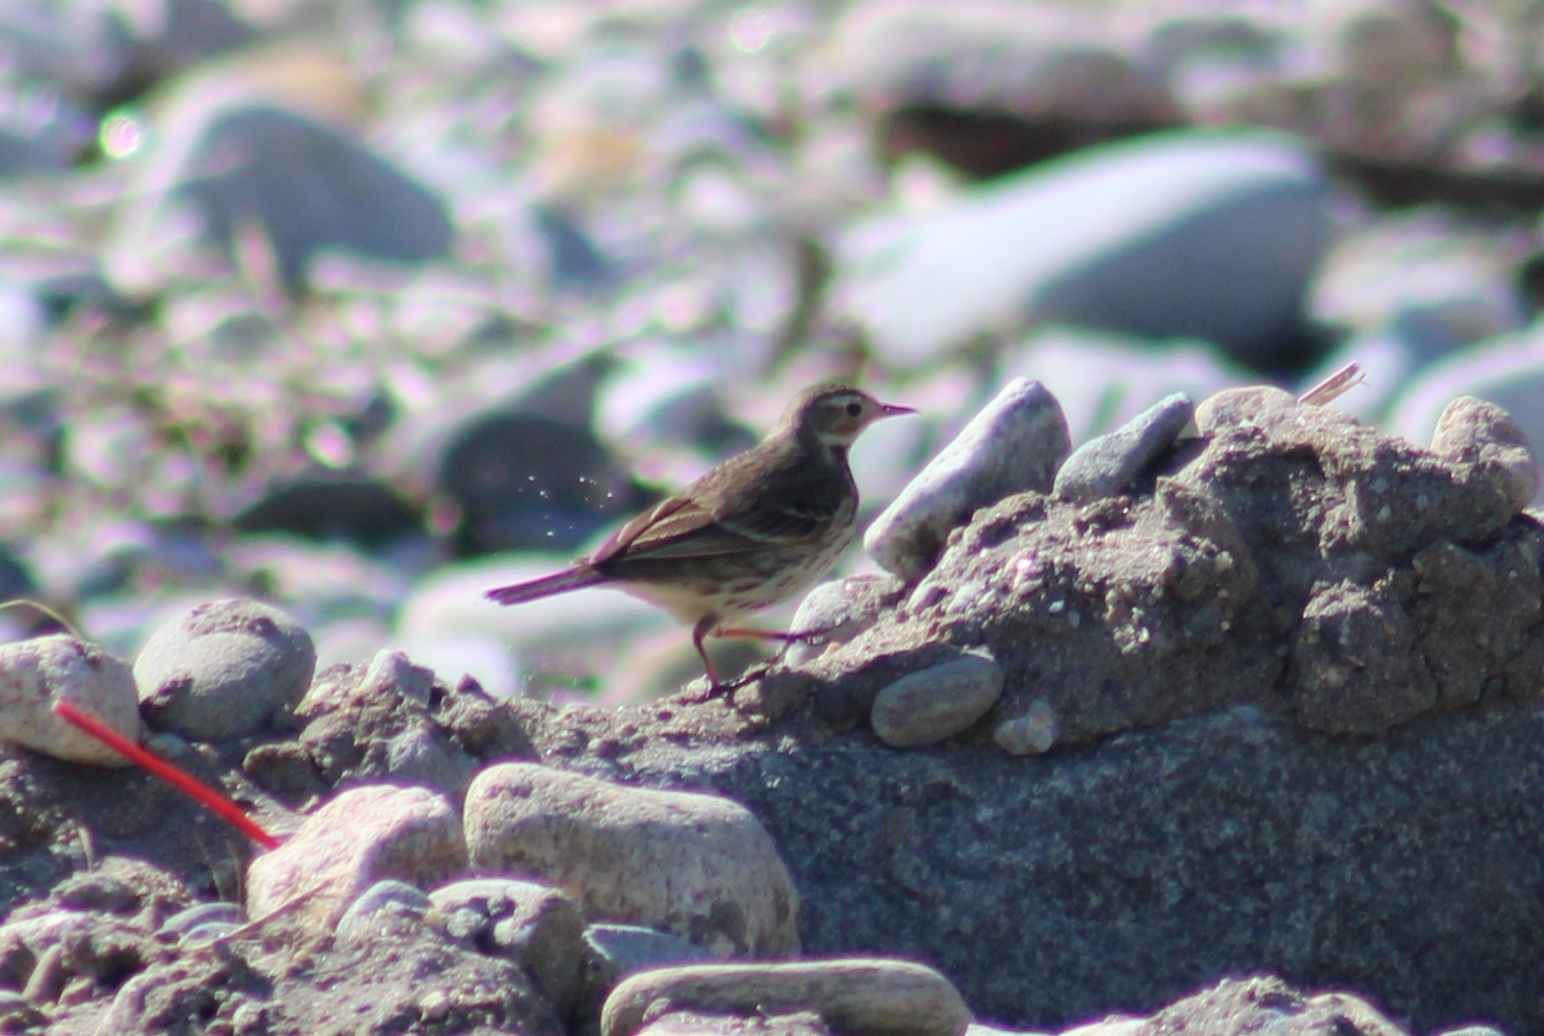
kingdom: Animalia
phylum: Chordata
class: Aves
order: Passeriformes
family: Motacillidae
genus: Anthus
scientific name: Anthus rubescens
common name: Buff-bellied pipit
